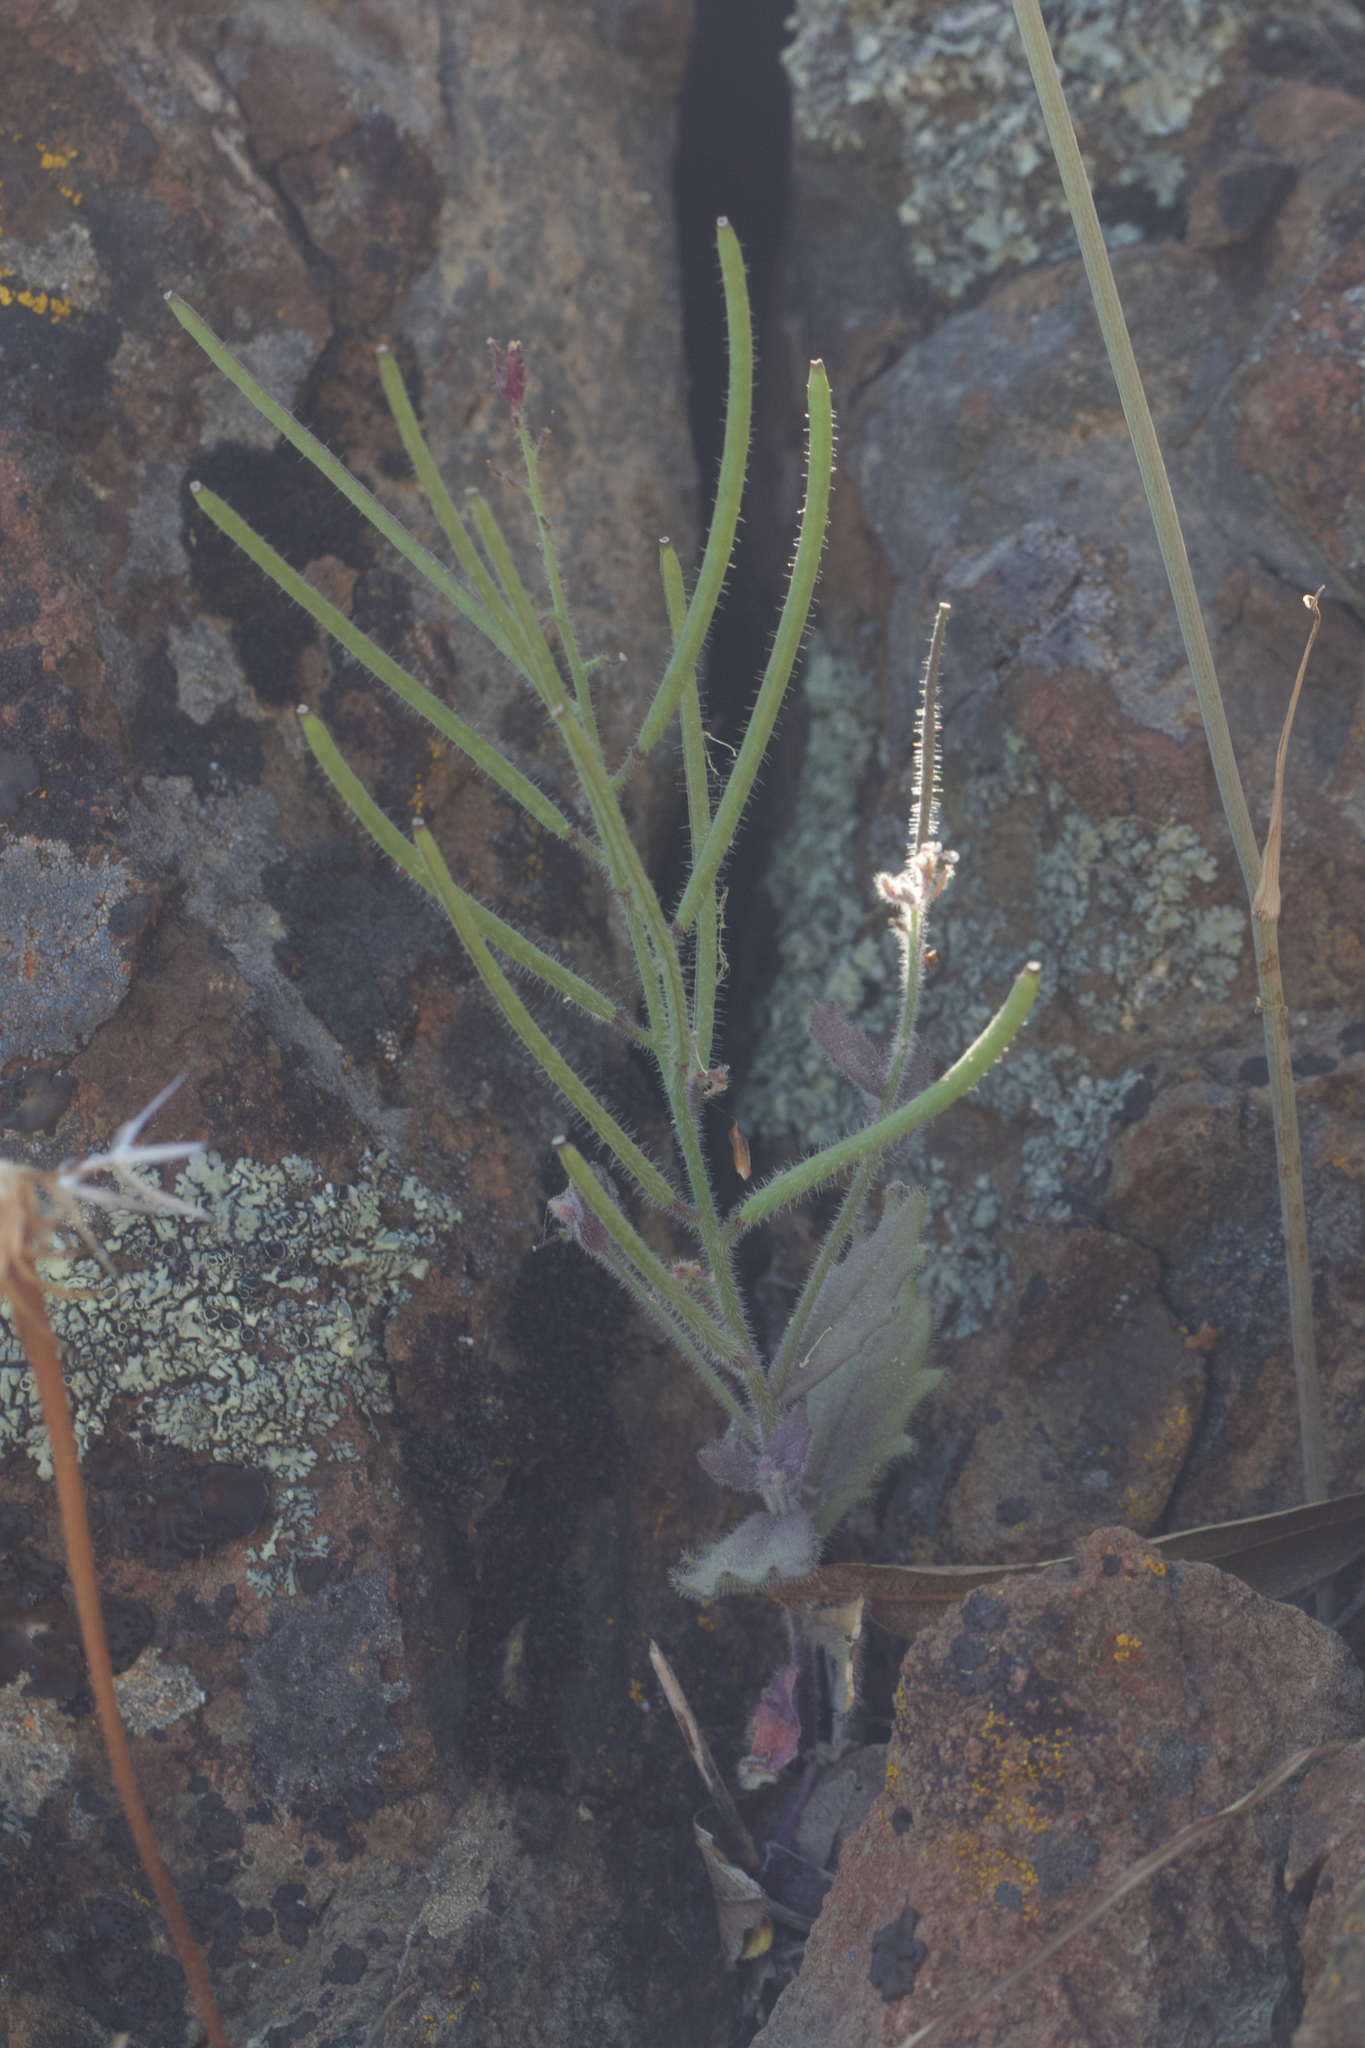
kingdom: Plantae
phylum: Tracheophyta
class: Magnoliopsida
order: Brassicales
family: Brassicaceae
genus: Streptanthus
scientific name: Streptanthus hispidus
